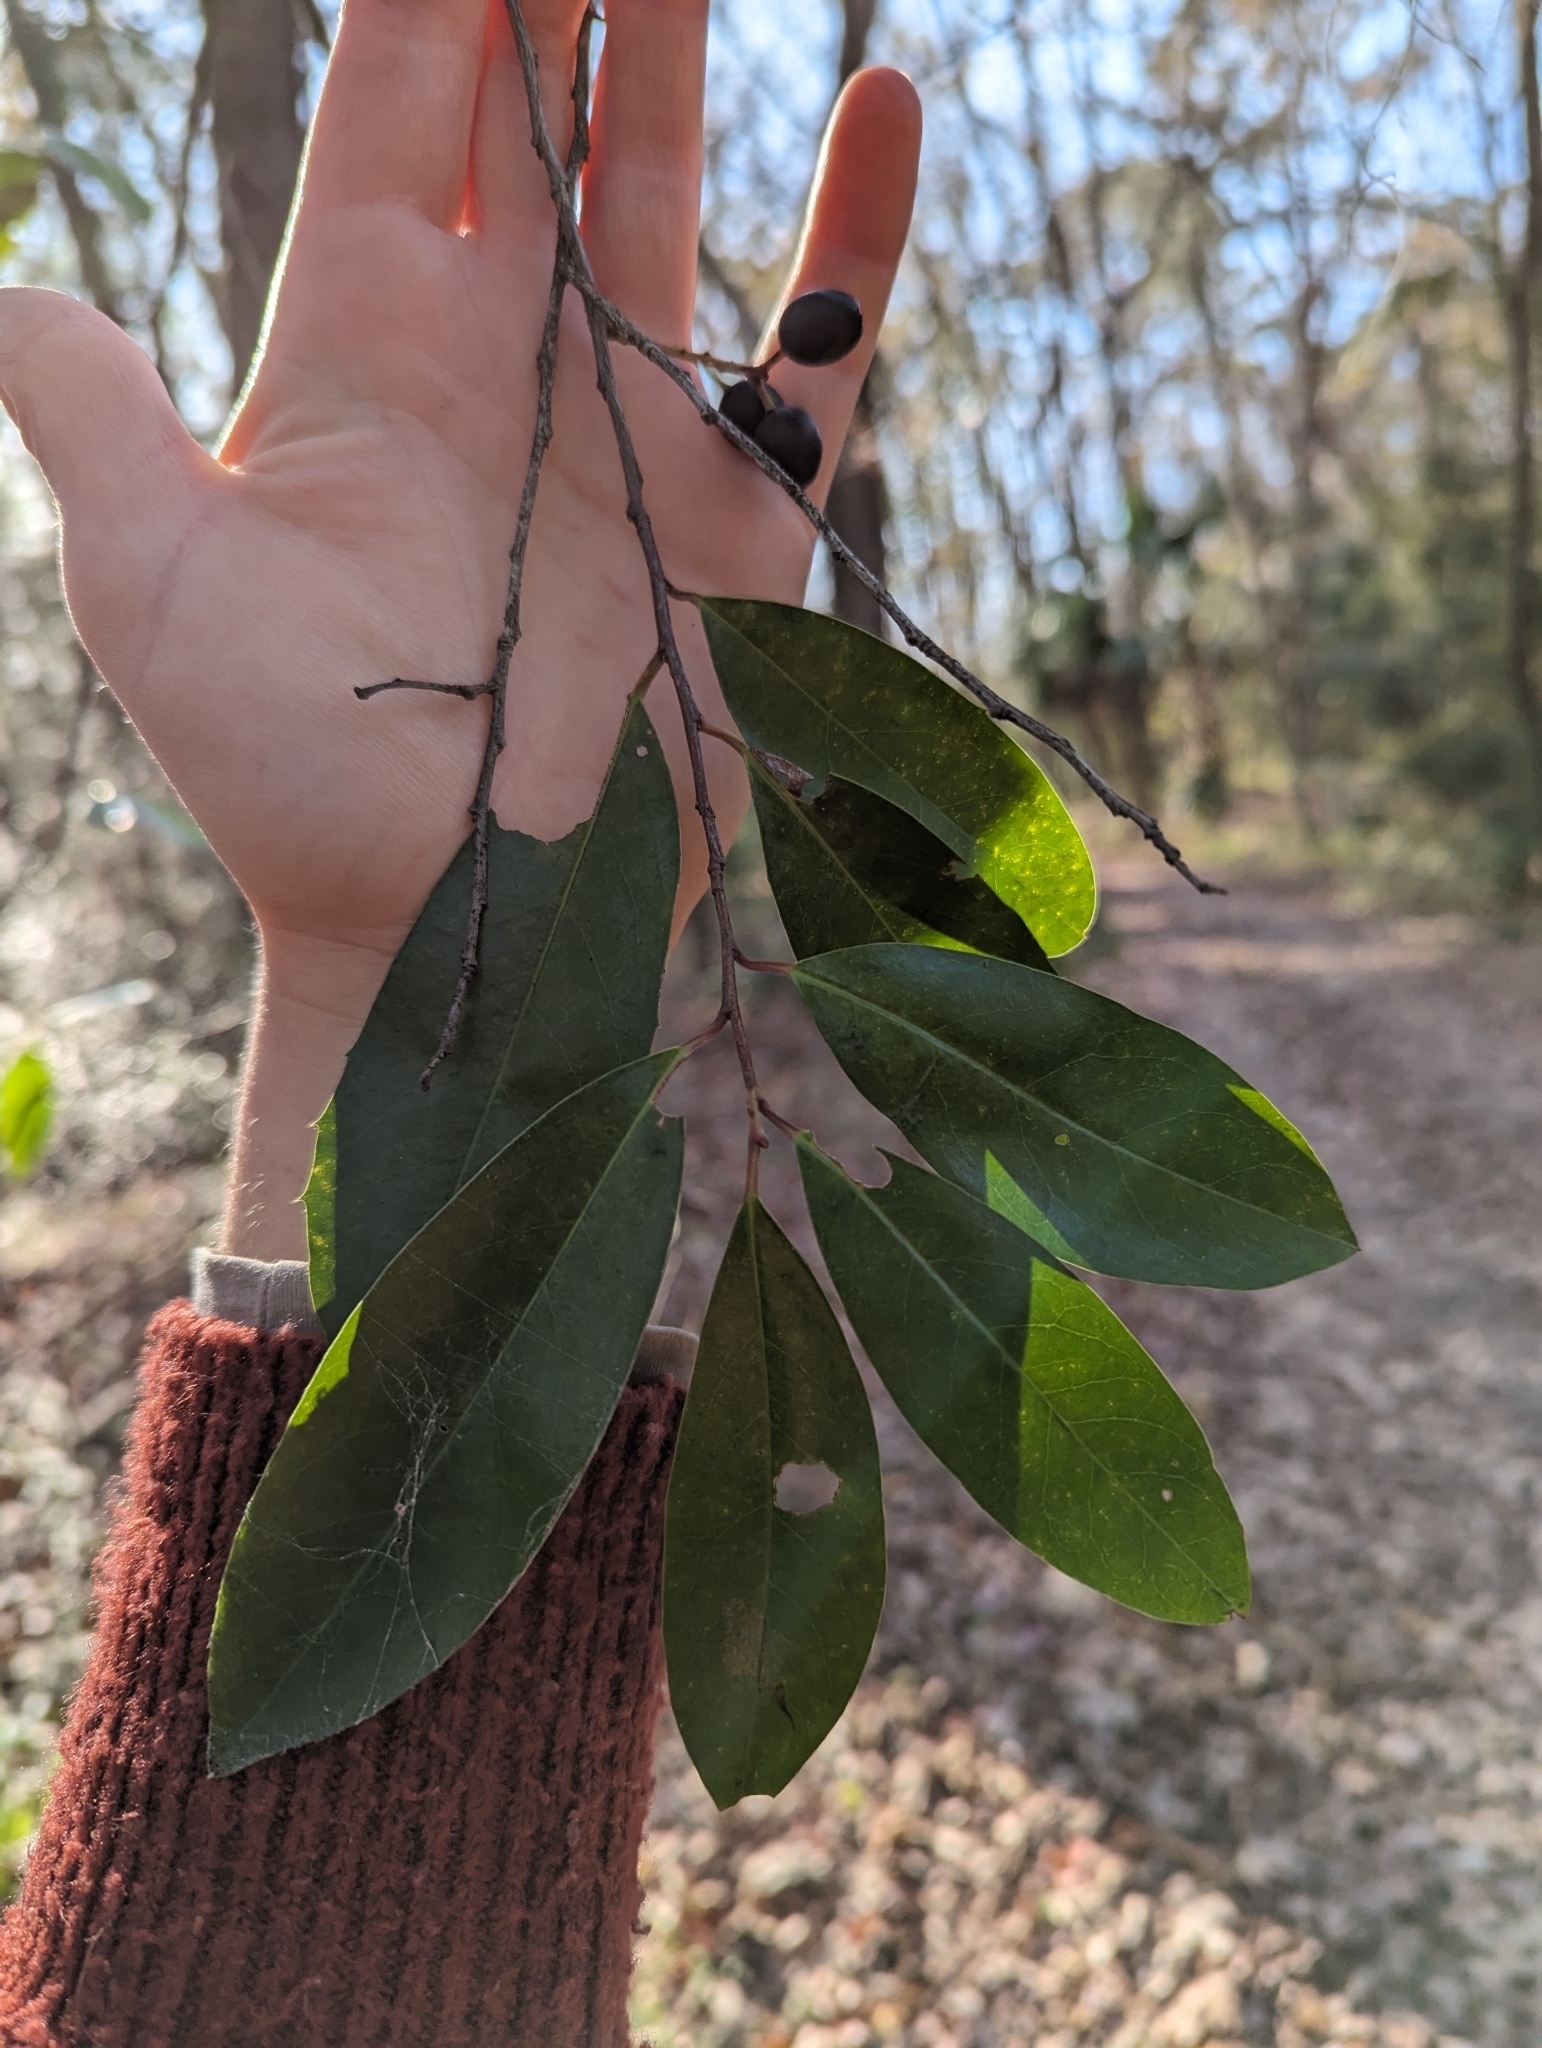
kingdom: Plantae
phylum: Tracheophyta
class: Magnoliopsida
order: Rosales
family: Rosaceae
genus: Prunus
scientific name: Prunus caroliniana
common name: Carolina laurel cherry
